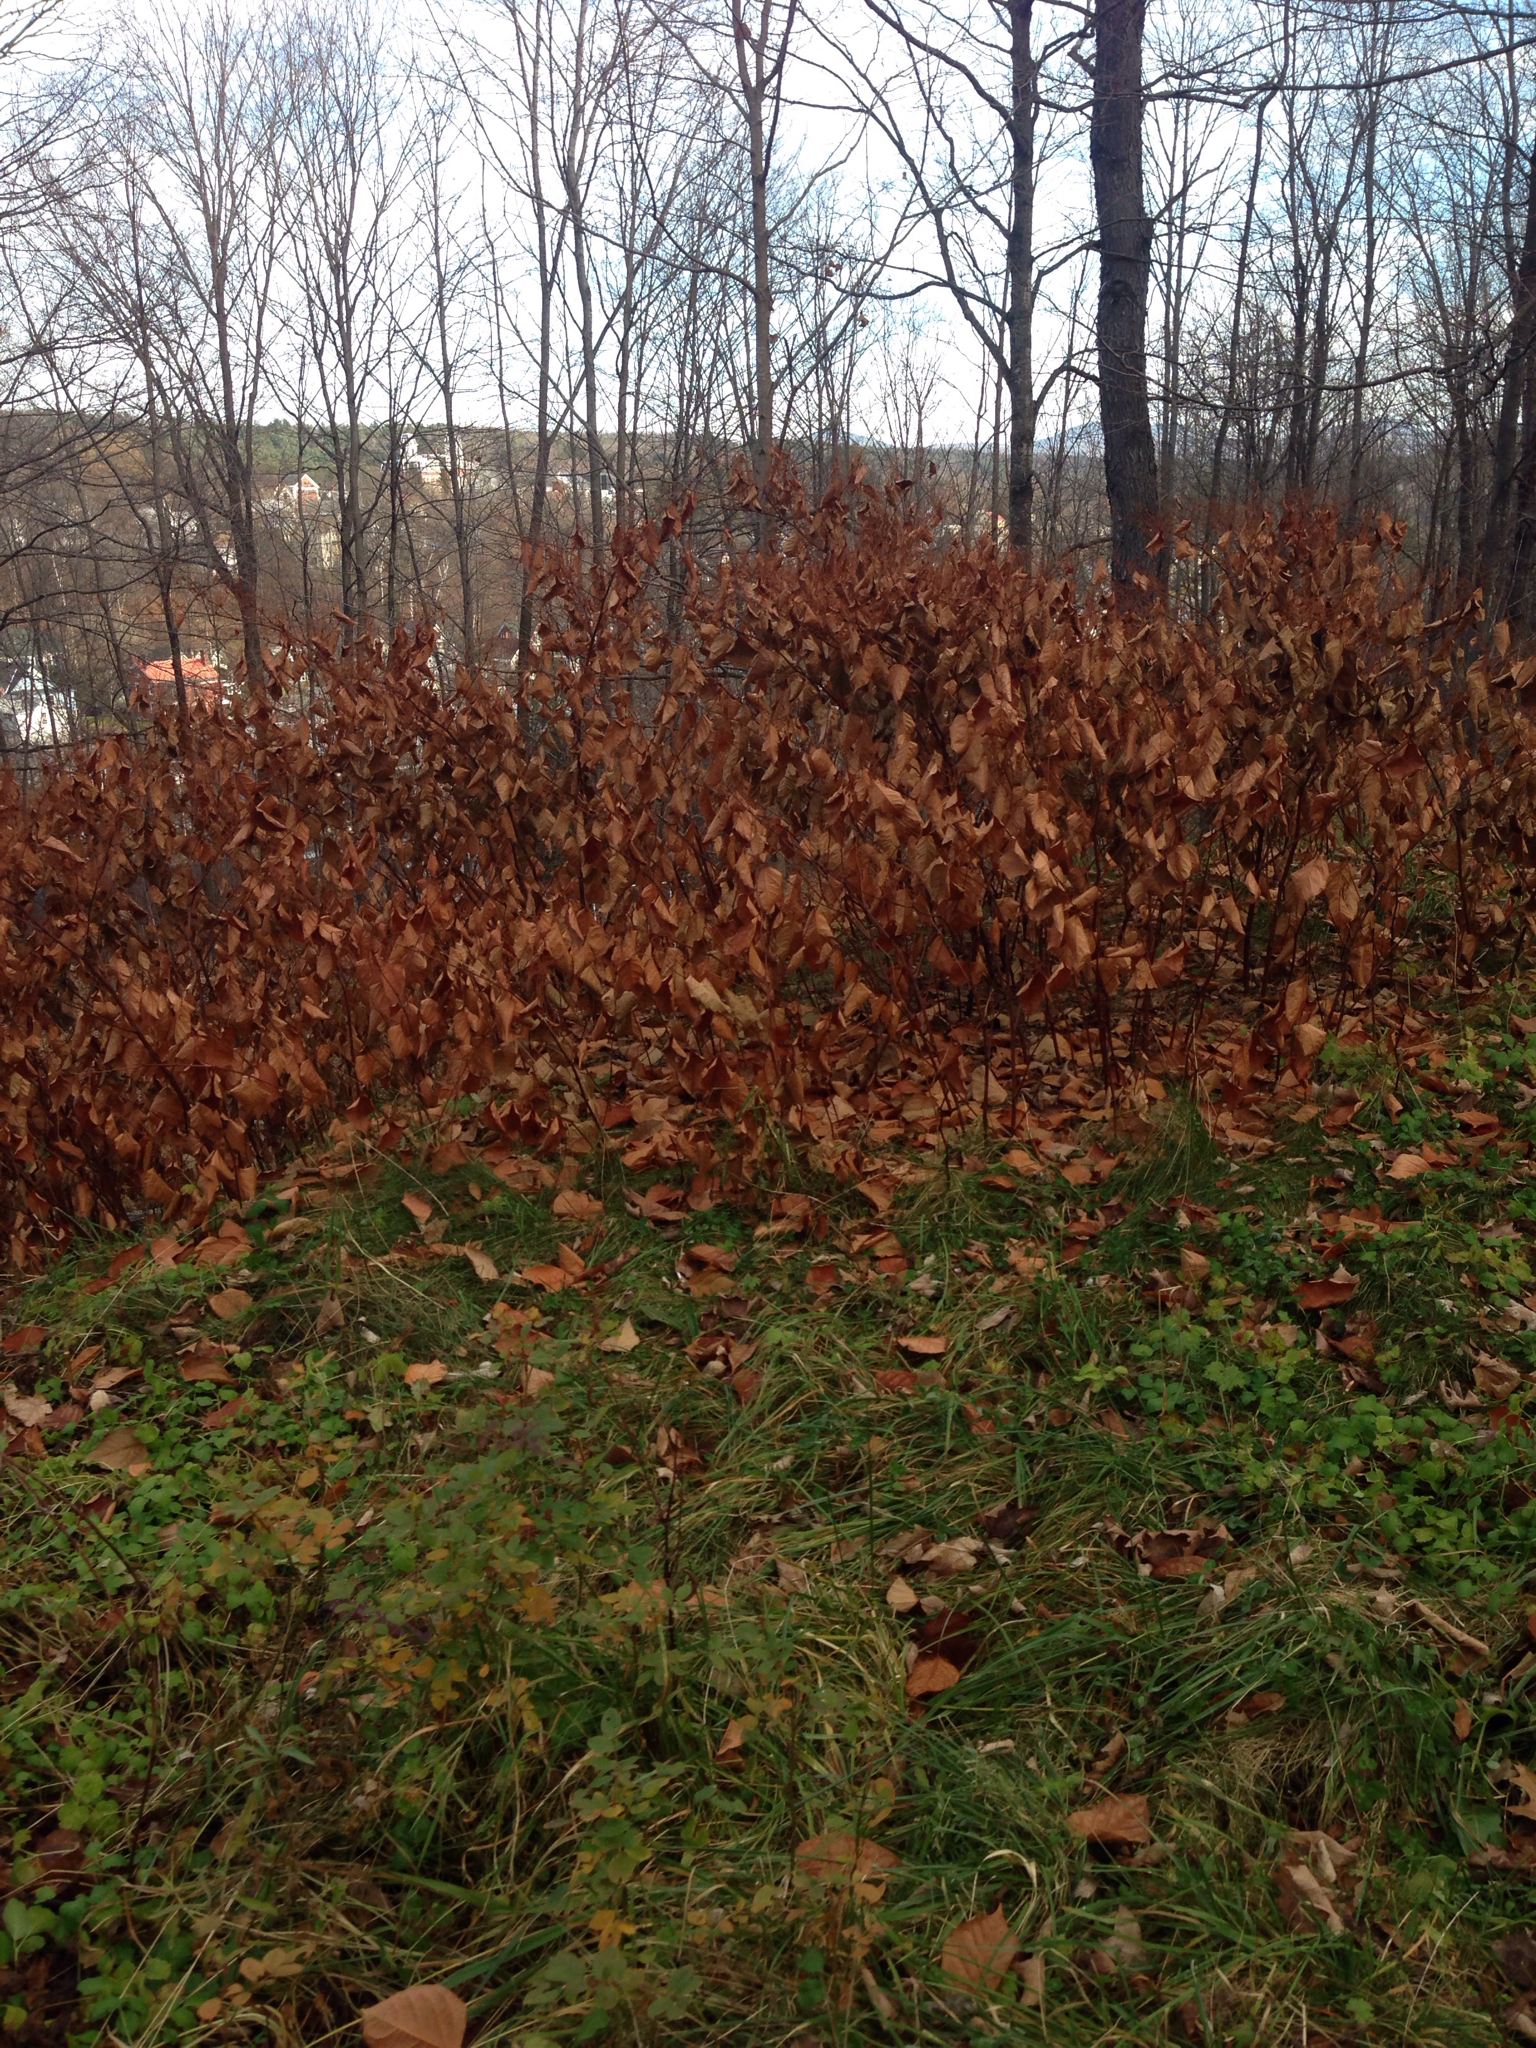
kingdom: Plantae
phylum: Tracheophyta
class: Magnoliopsida
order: Caryophyllales
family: Polygonaceae
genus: Reynoutria
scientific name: Reynoutria japonica
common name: Japanese knotweed
